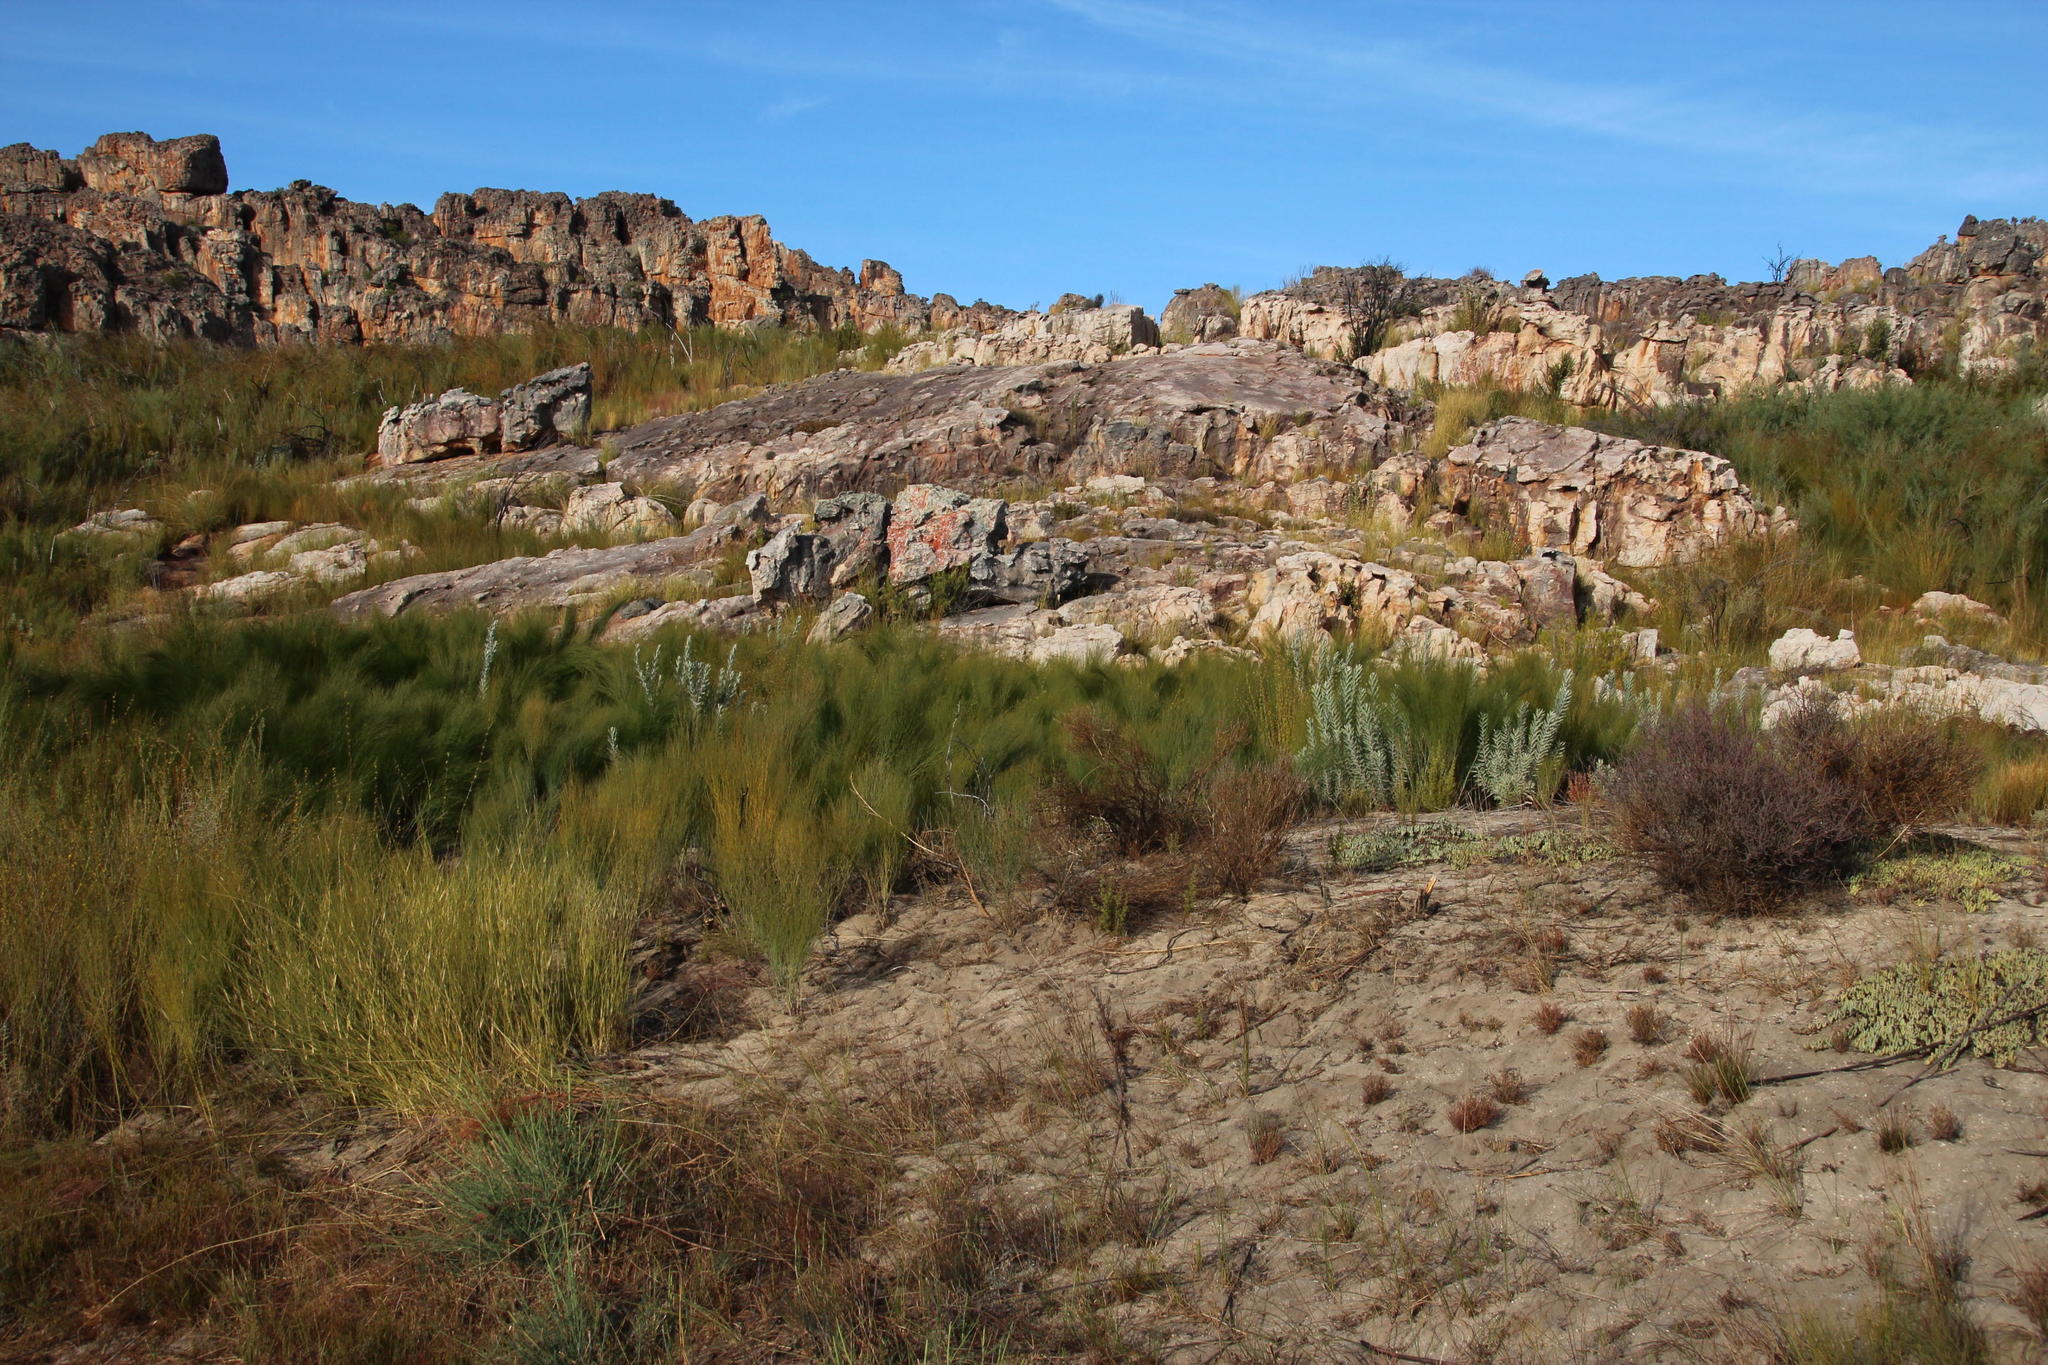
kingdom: Plantae
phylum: Tracheophyta
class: Magnoliopsida
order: Fabales
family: Fabaceae
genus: Aspalathus
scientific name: Aspalathus linearis
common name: Rooibos-tea
